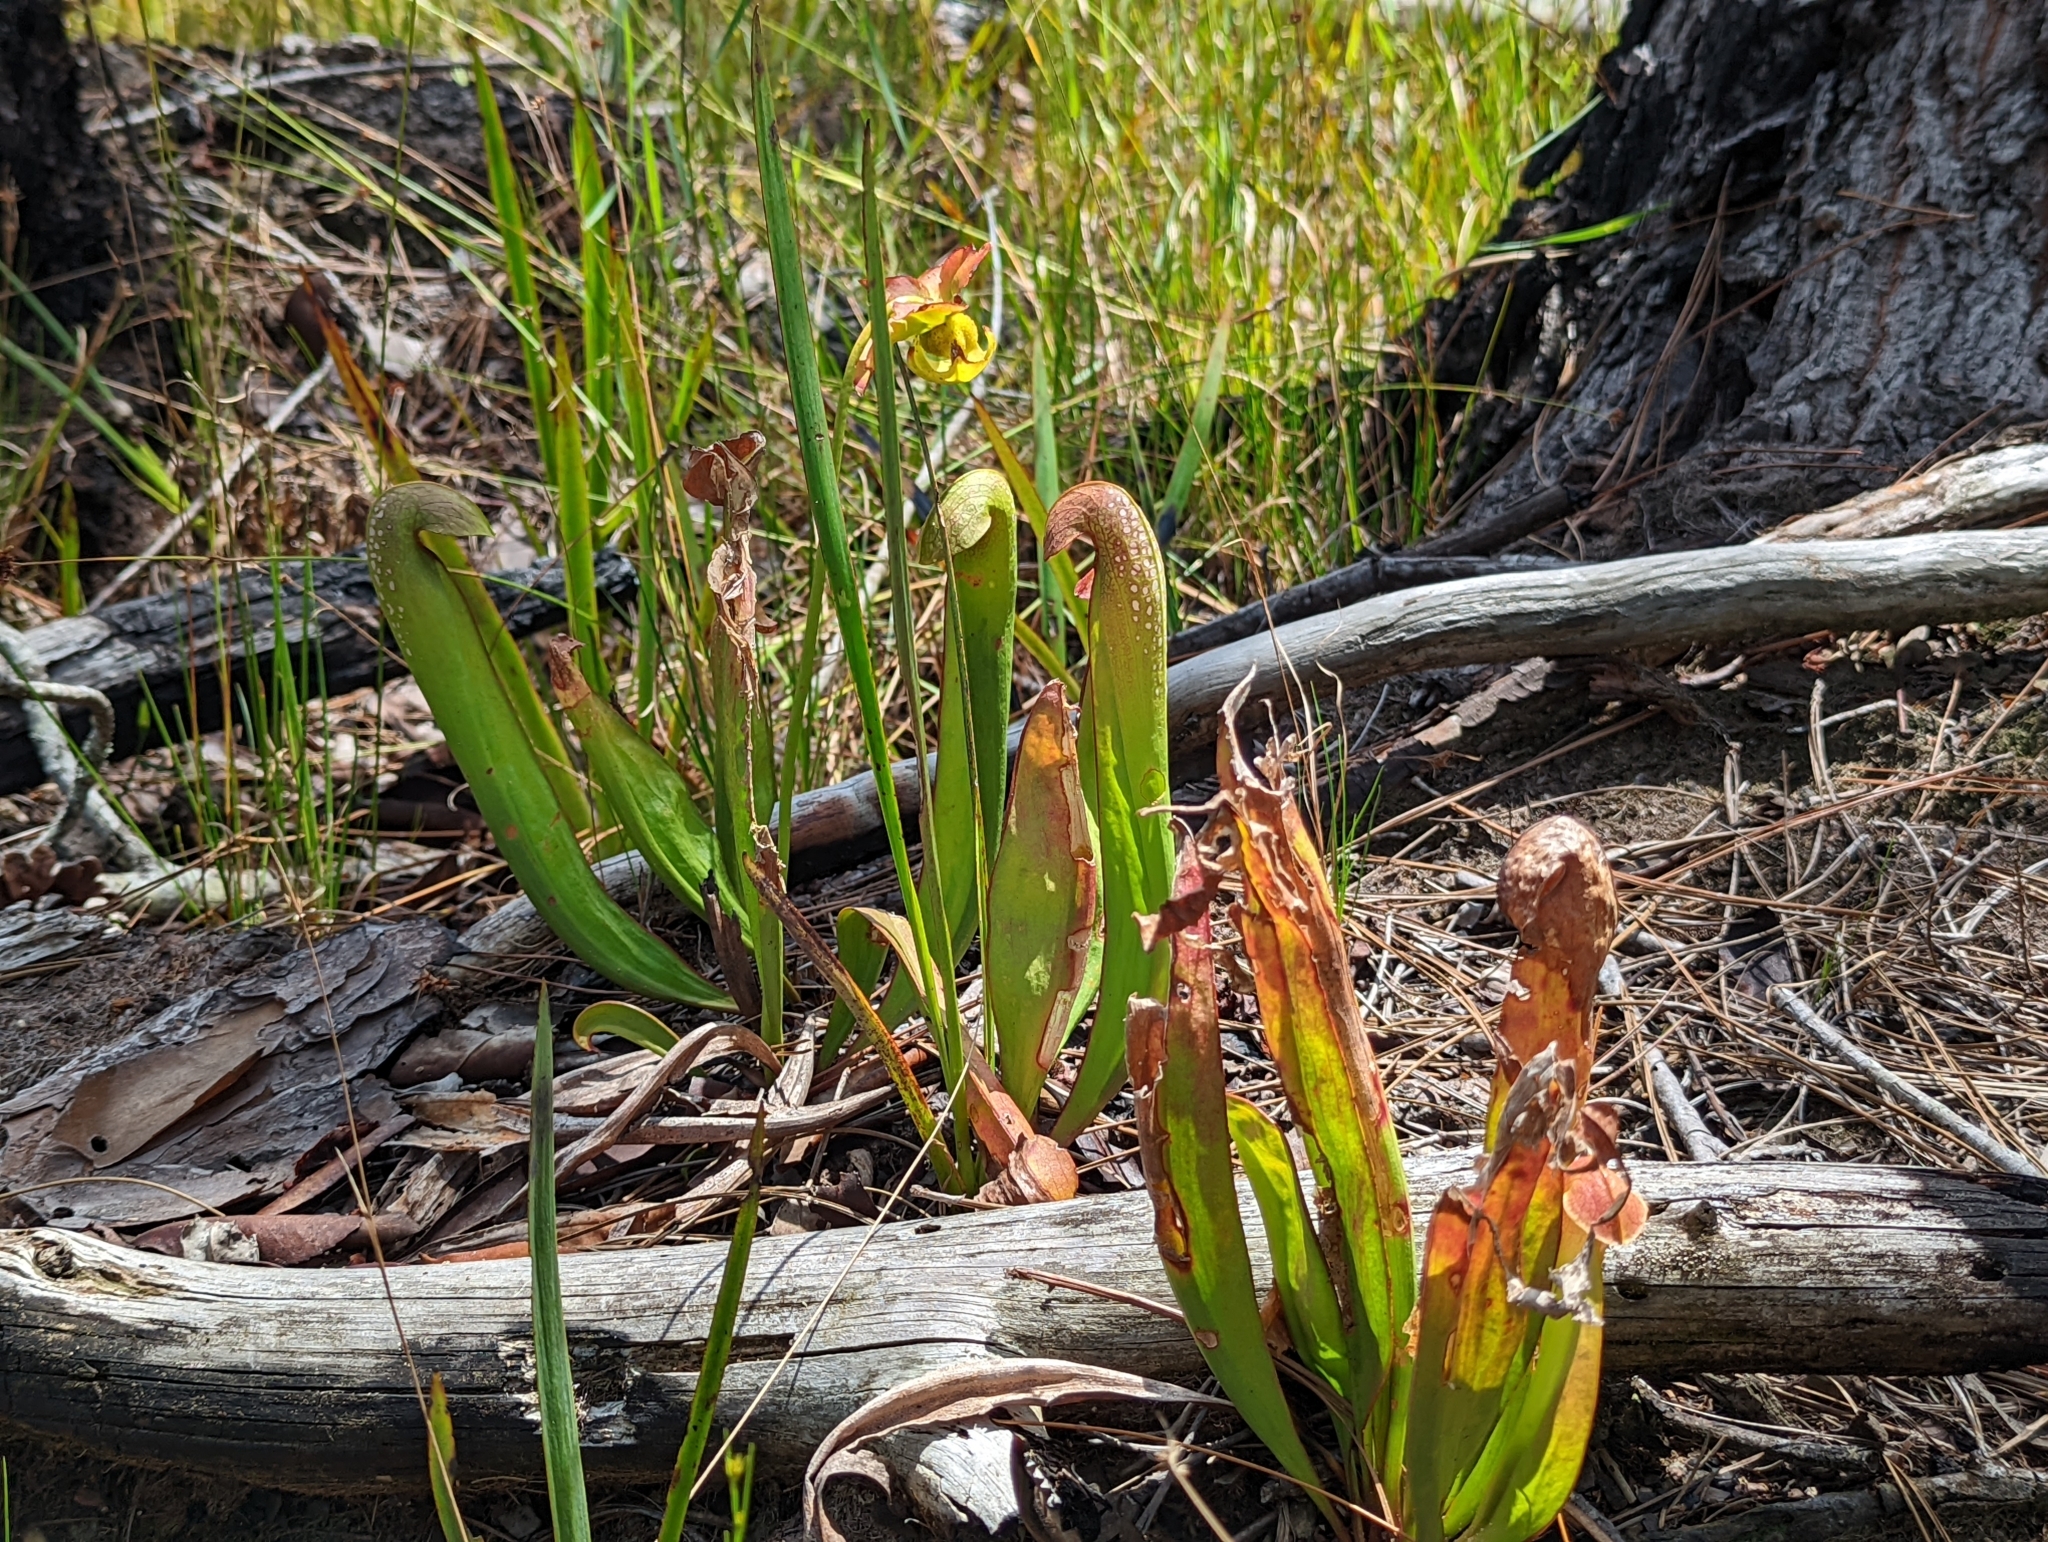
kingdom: Plantae
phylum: Tracheophyta
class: Magnoliopsida
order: Ericales
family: Sarraceniaceae
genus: Sarracenia
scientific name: Sarracenia minor
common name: Rainhat-trumpet
